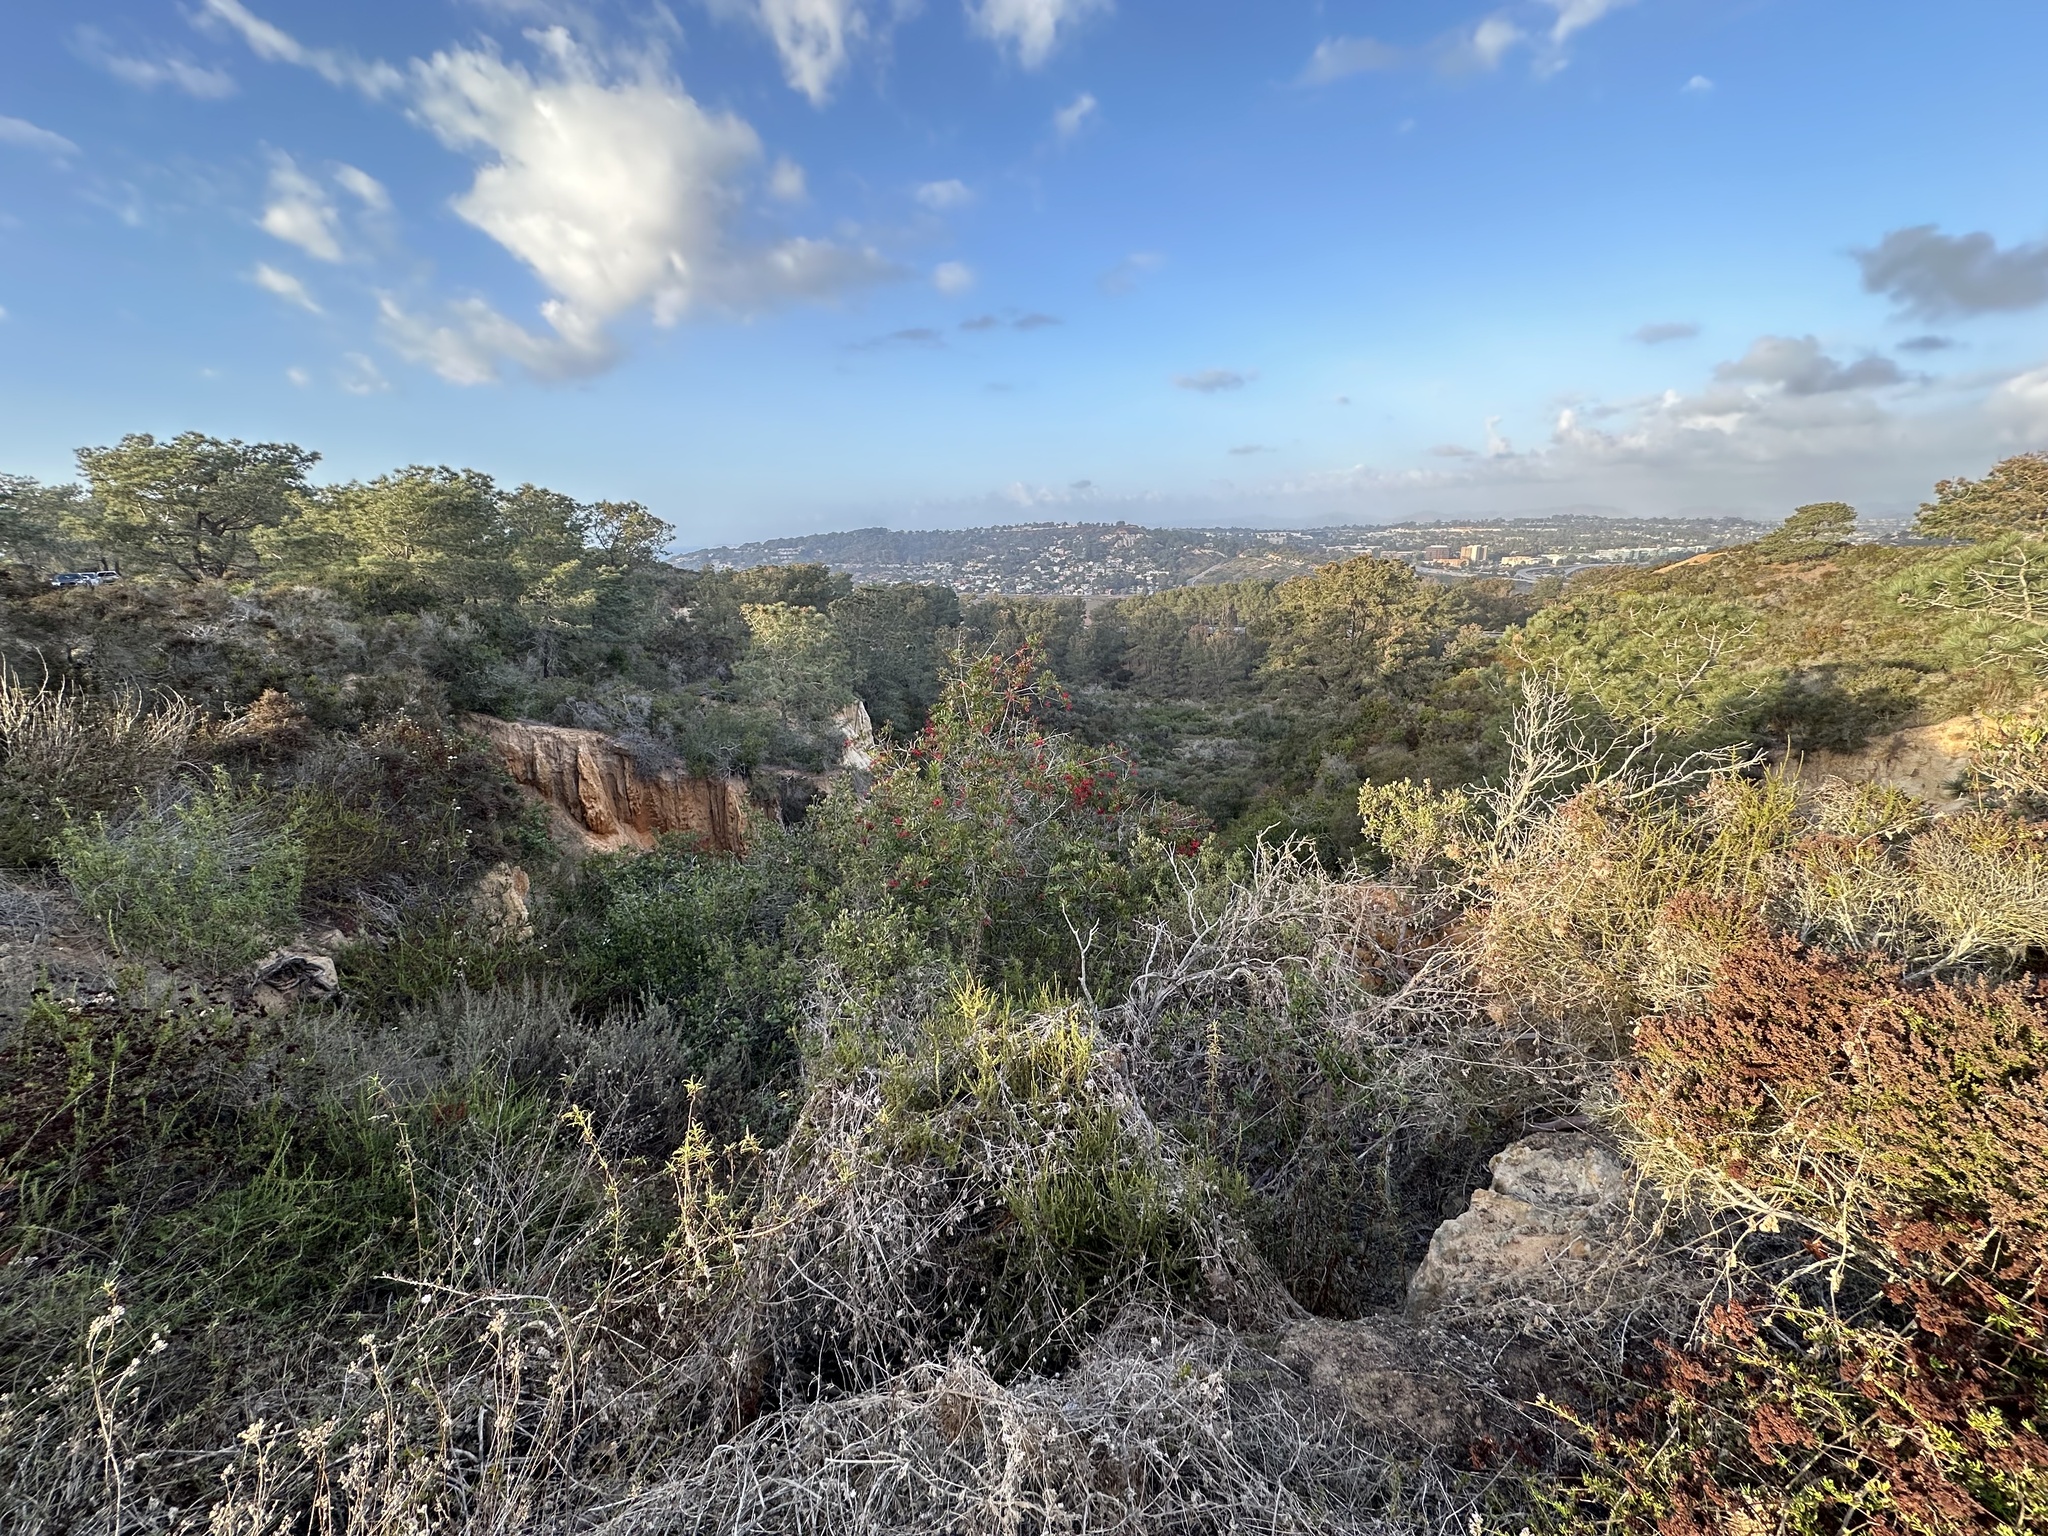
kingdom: Plantae
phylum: Tracheophyta
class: Magnoliopsida
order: Rosales
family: Rosaceae
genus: Heteromeles
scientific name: Heteromeles arbutifolia
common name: California-holly
